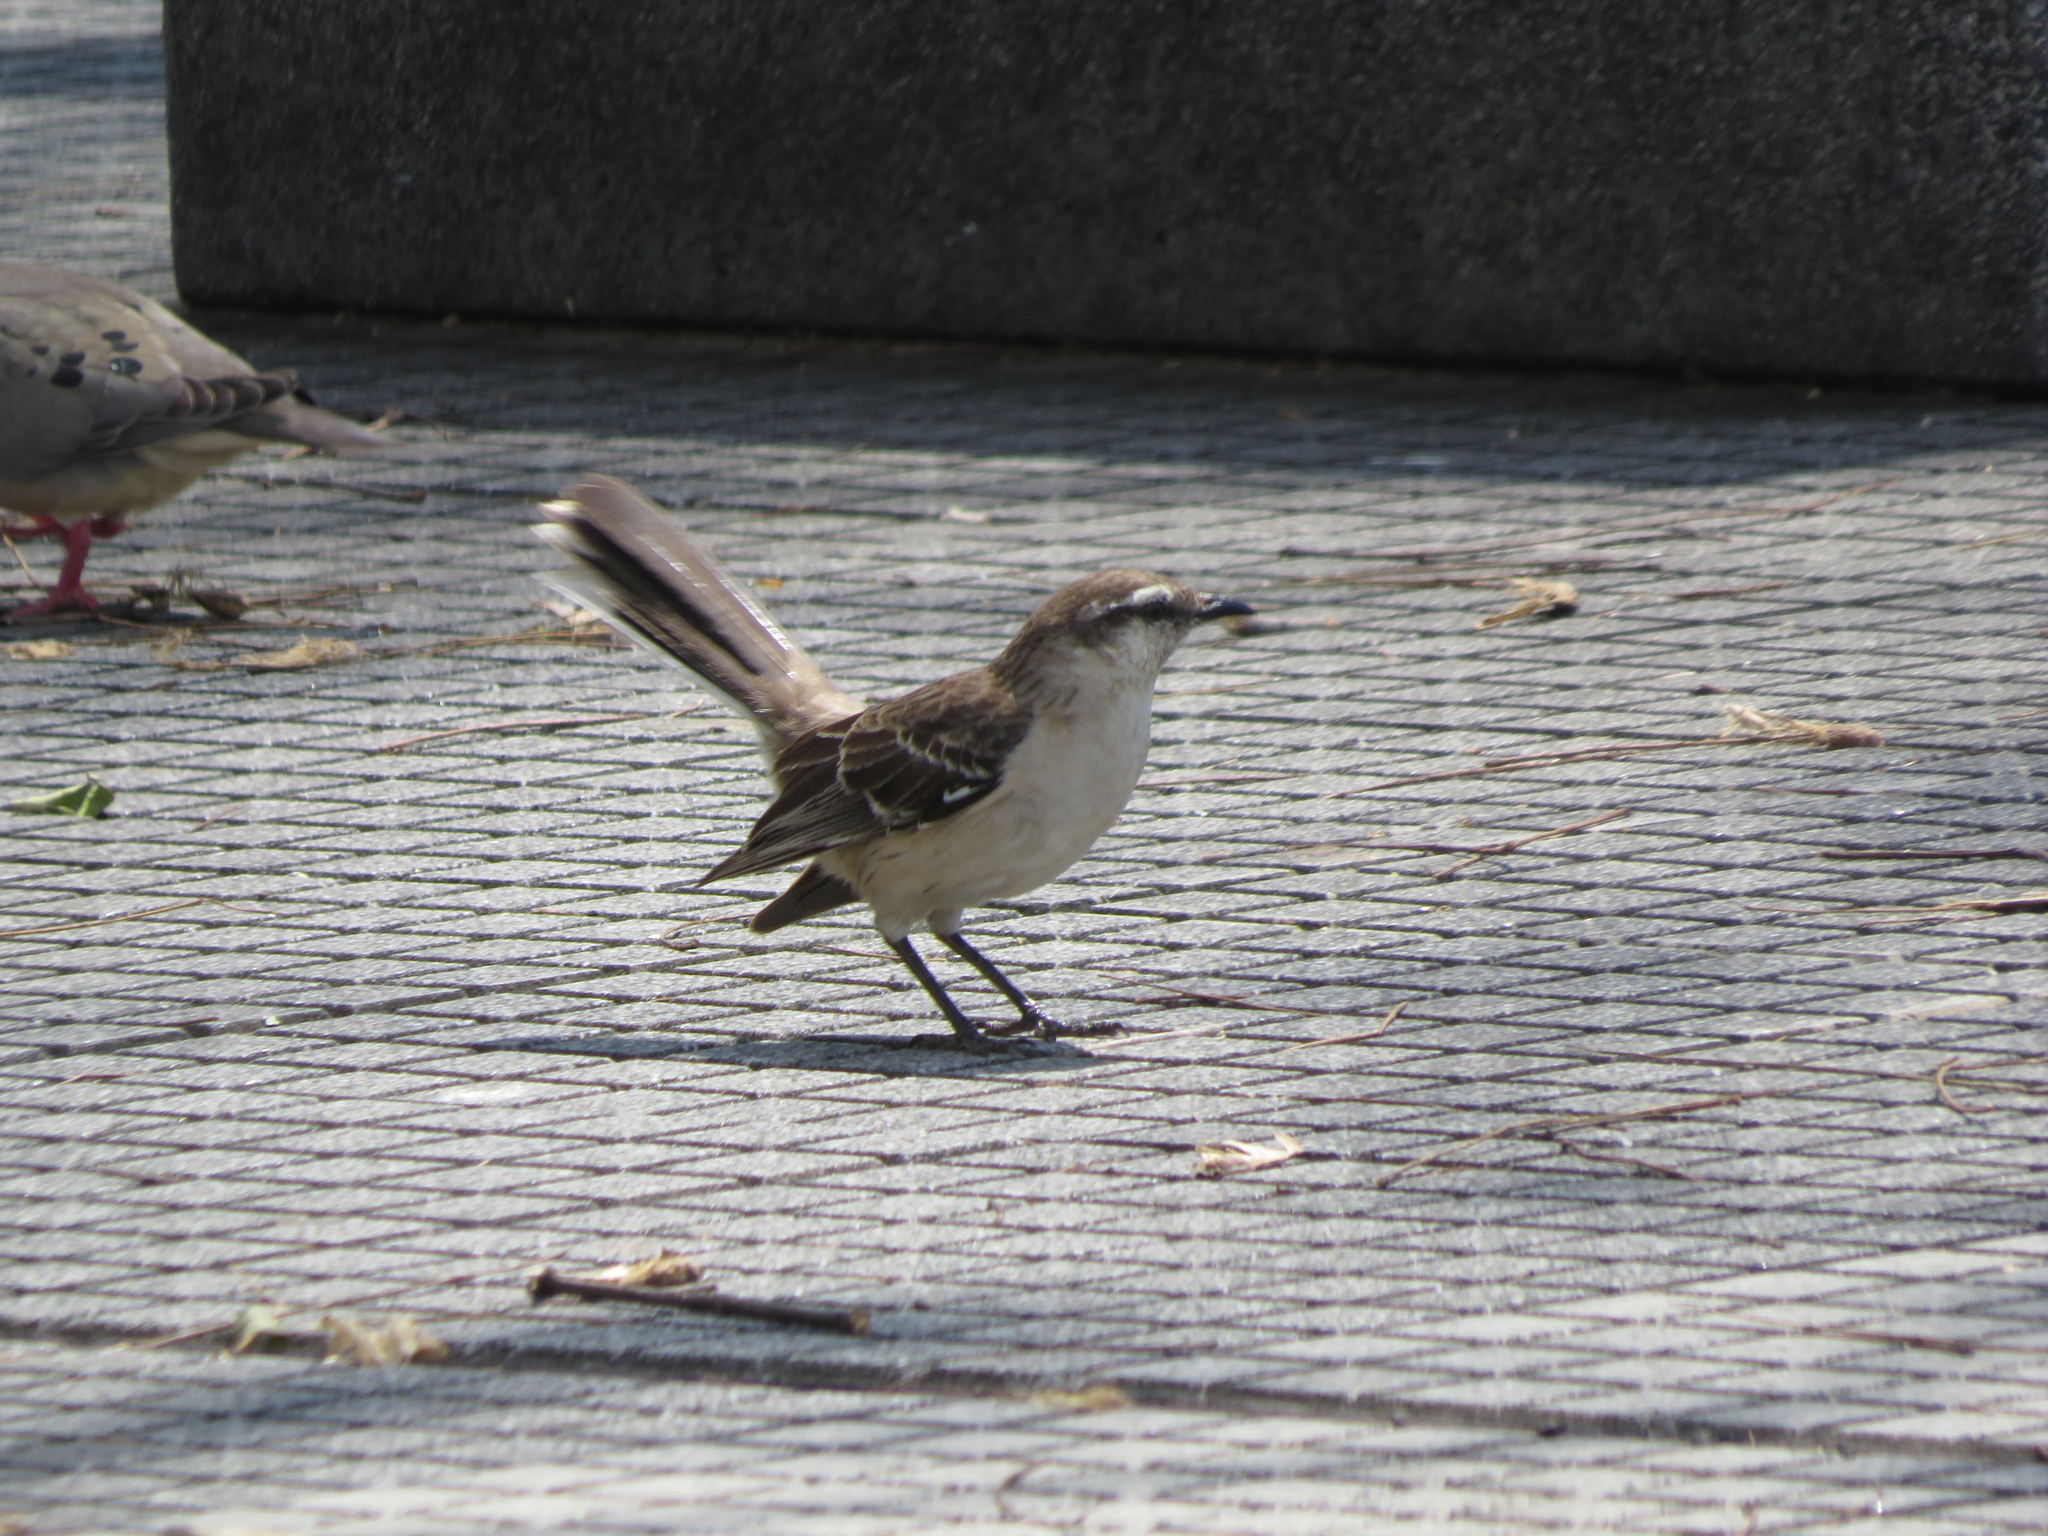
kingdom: Animalia
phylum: Chordata
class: Aves
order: Passeriformes
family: Mimidae
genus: Mimus
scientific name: Mimus saturninus
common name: Chalk-browed mockingbird
